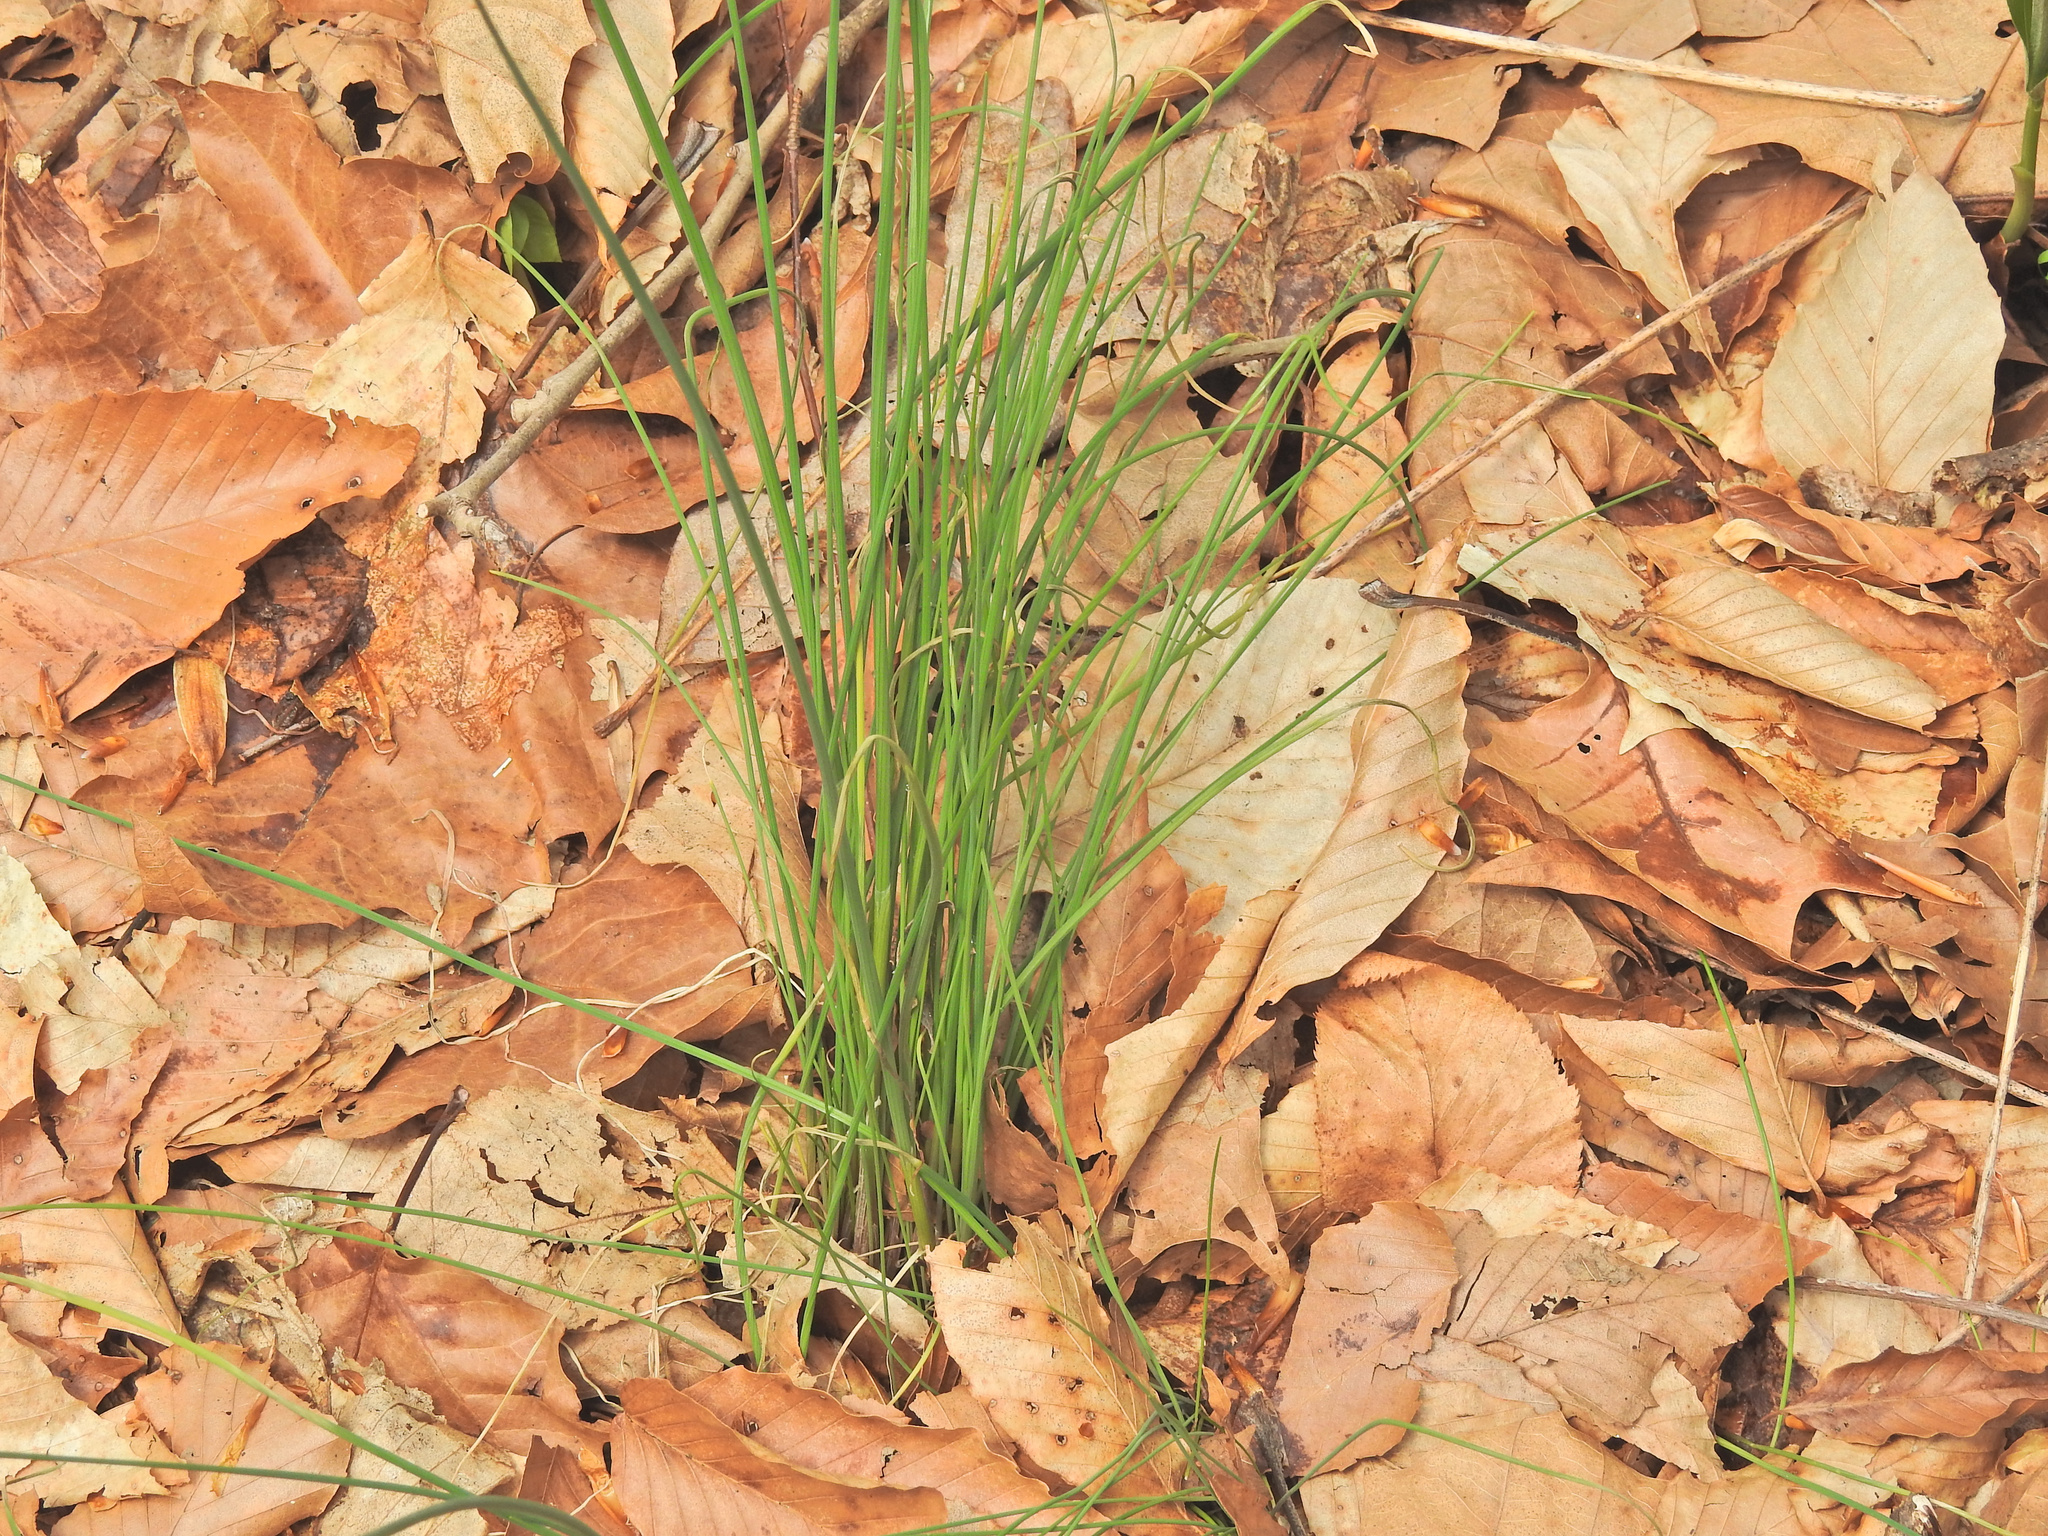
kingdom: Plantae
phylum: Tracheophyta
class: Liliopsida
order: Asparagales
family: Amaryllidaceae
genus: Allium
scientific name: Allium vineale
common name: Crow garlic
